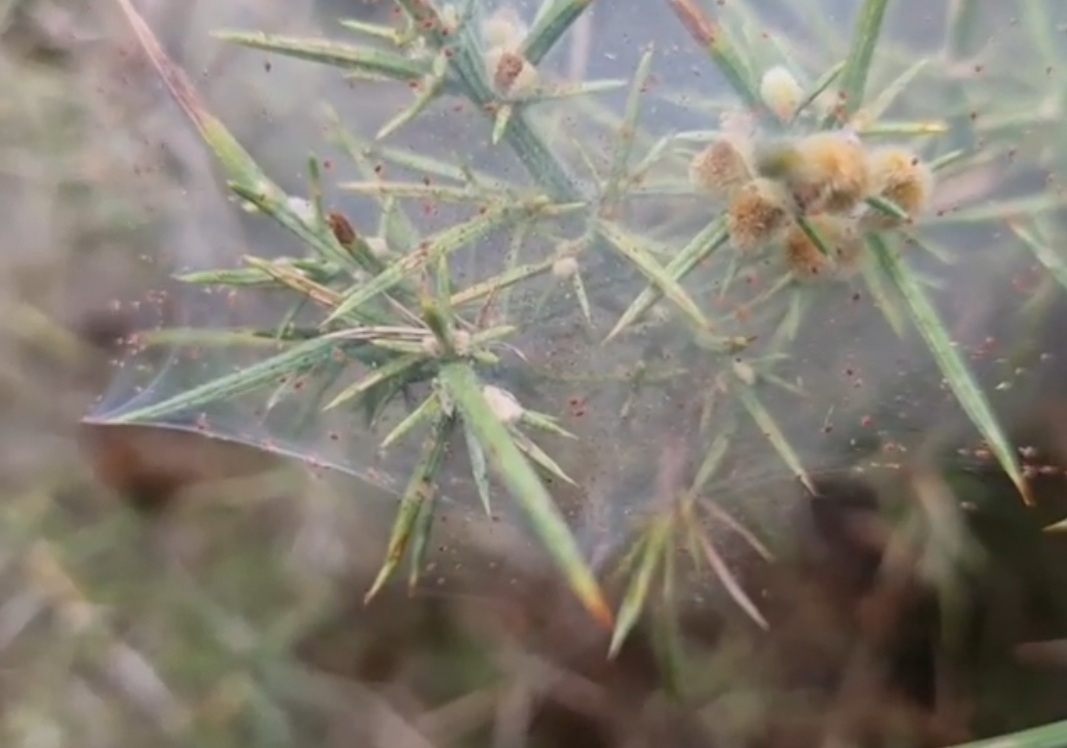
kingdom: Animalia
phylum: Arthropoda
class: Arachnida
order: Trombidiformes
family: Tetranychidae
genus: Tetranychus
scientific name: Tetranychus lintearius
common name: Gorse spider mite
